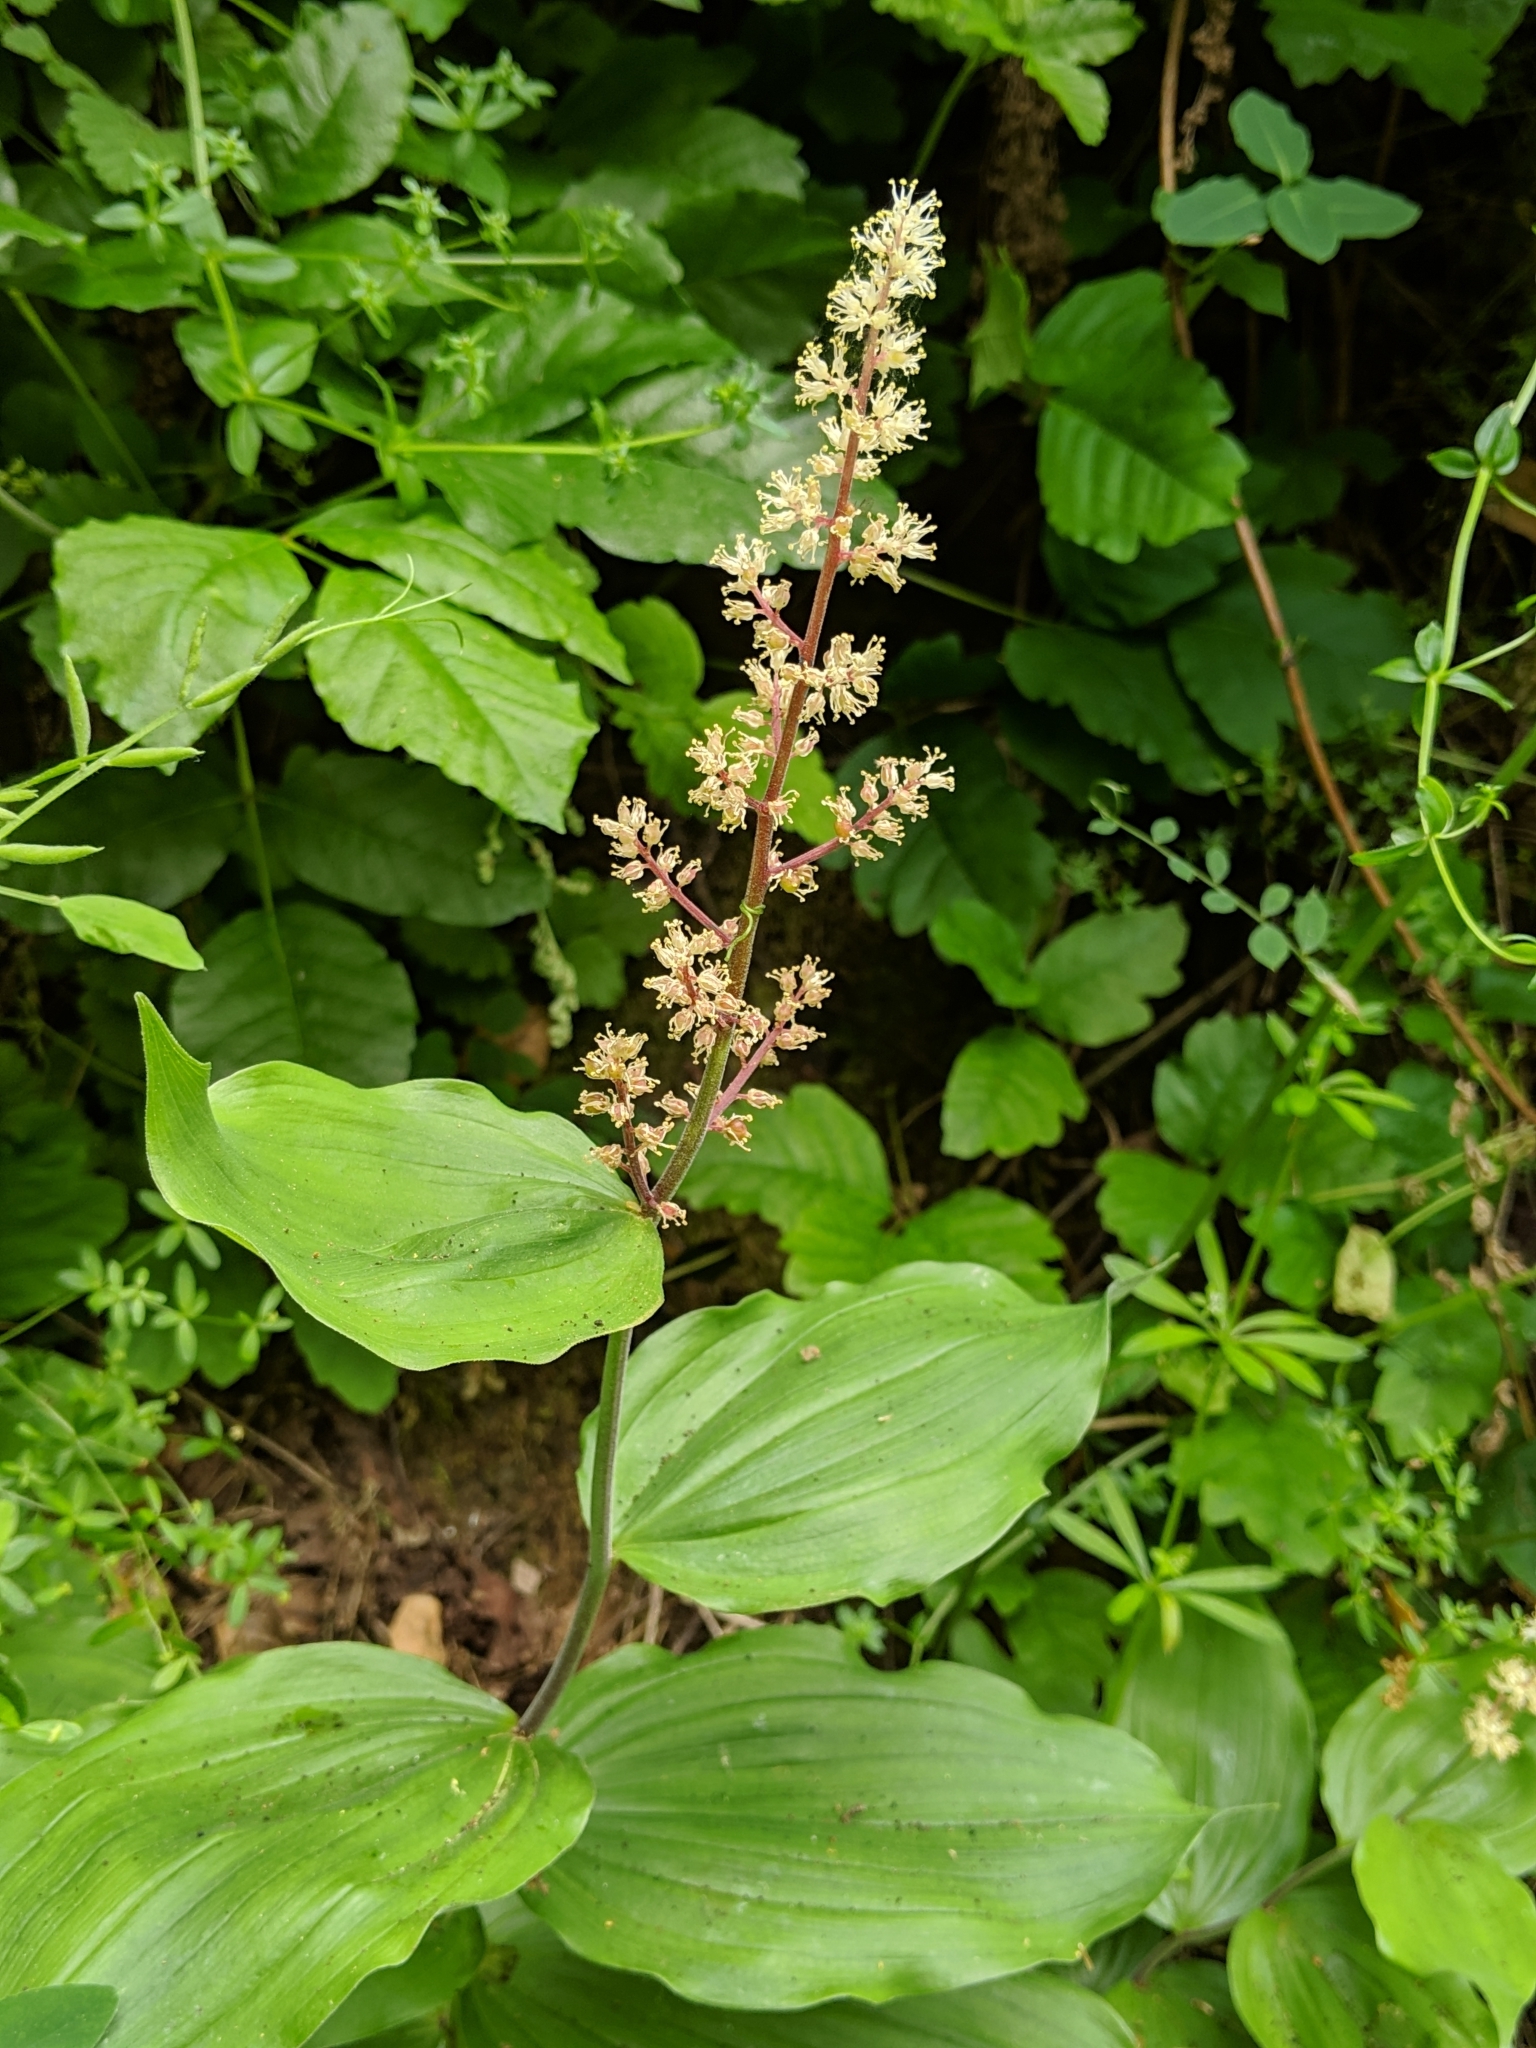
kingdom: Plantae
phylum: Tracheophyta
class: Liliopsida
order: Asparagales
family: Asparagaceae
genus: Maianthemum
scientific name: Maianthemum racemosum
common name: False spikenard
